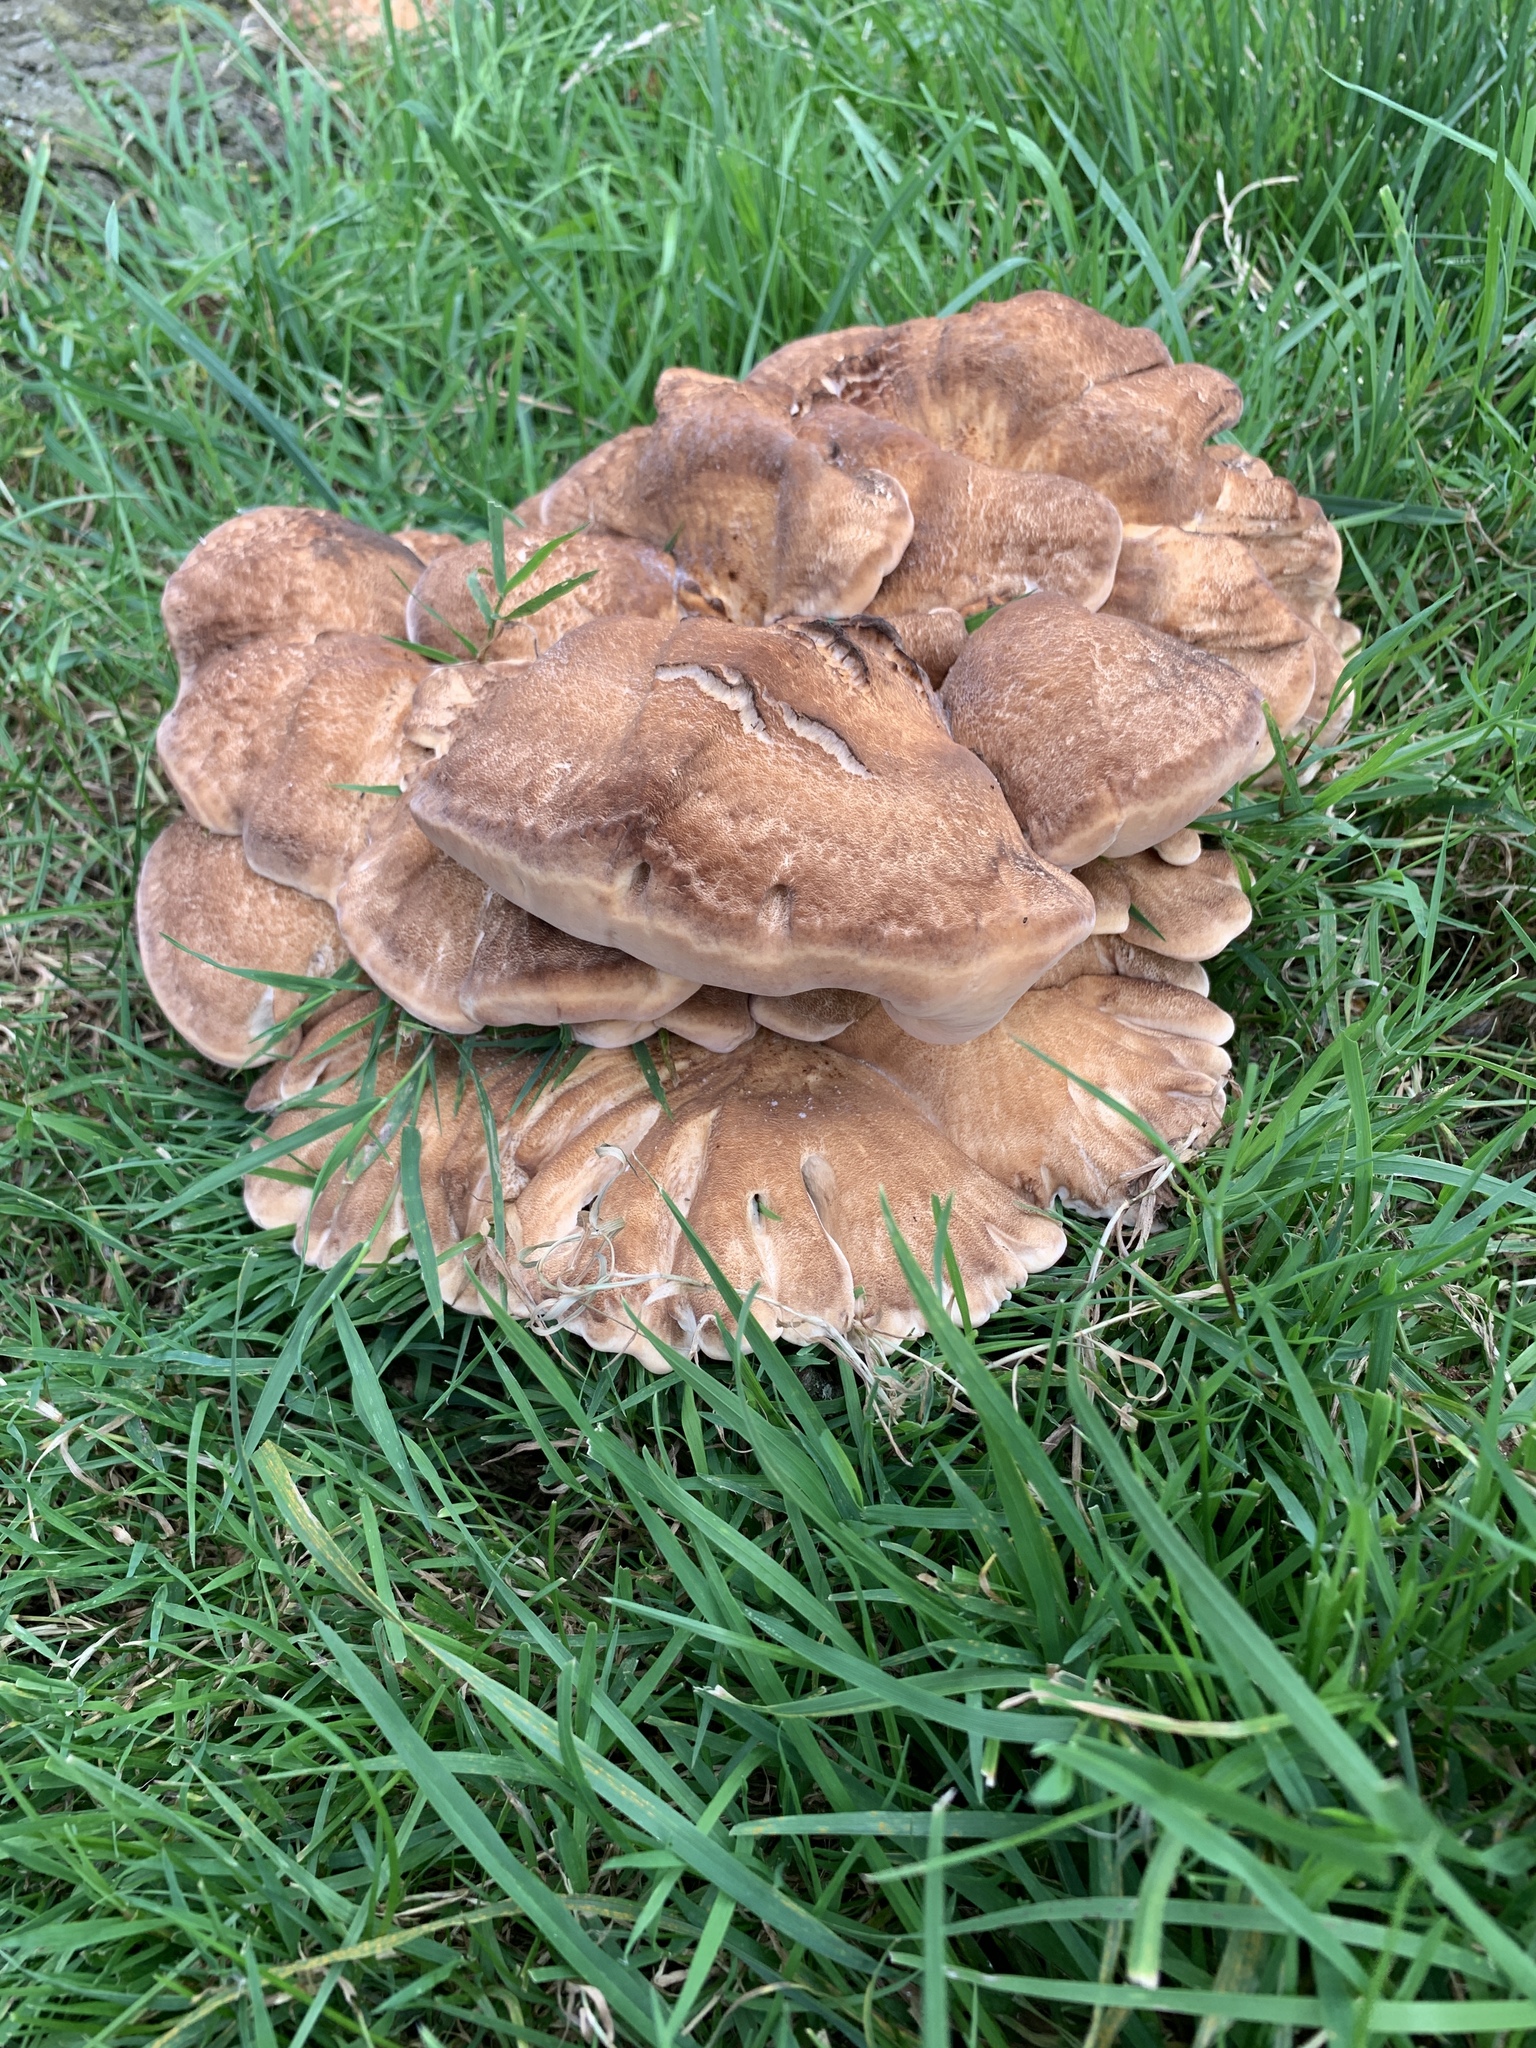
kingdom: Fungi
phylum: Basidiomycota
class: Agaricomycetes
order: Polyporales
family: Meripilaceae
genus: Meripilus
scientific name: Meripilus giganteus
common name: Giant polypore
